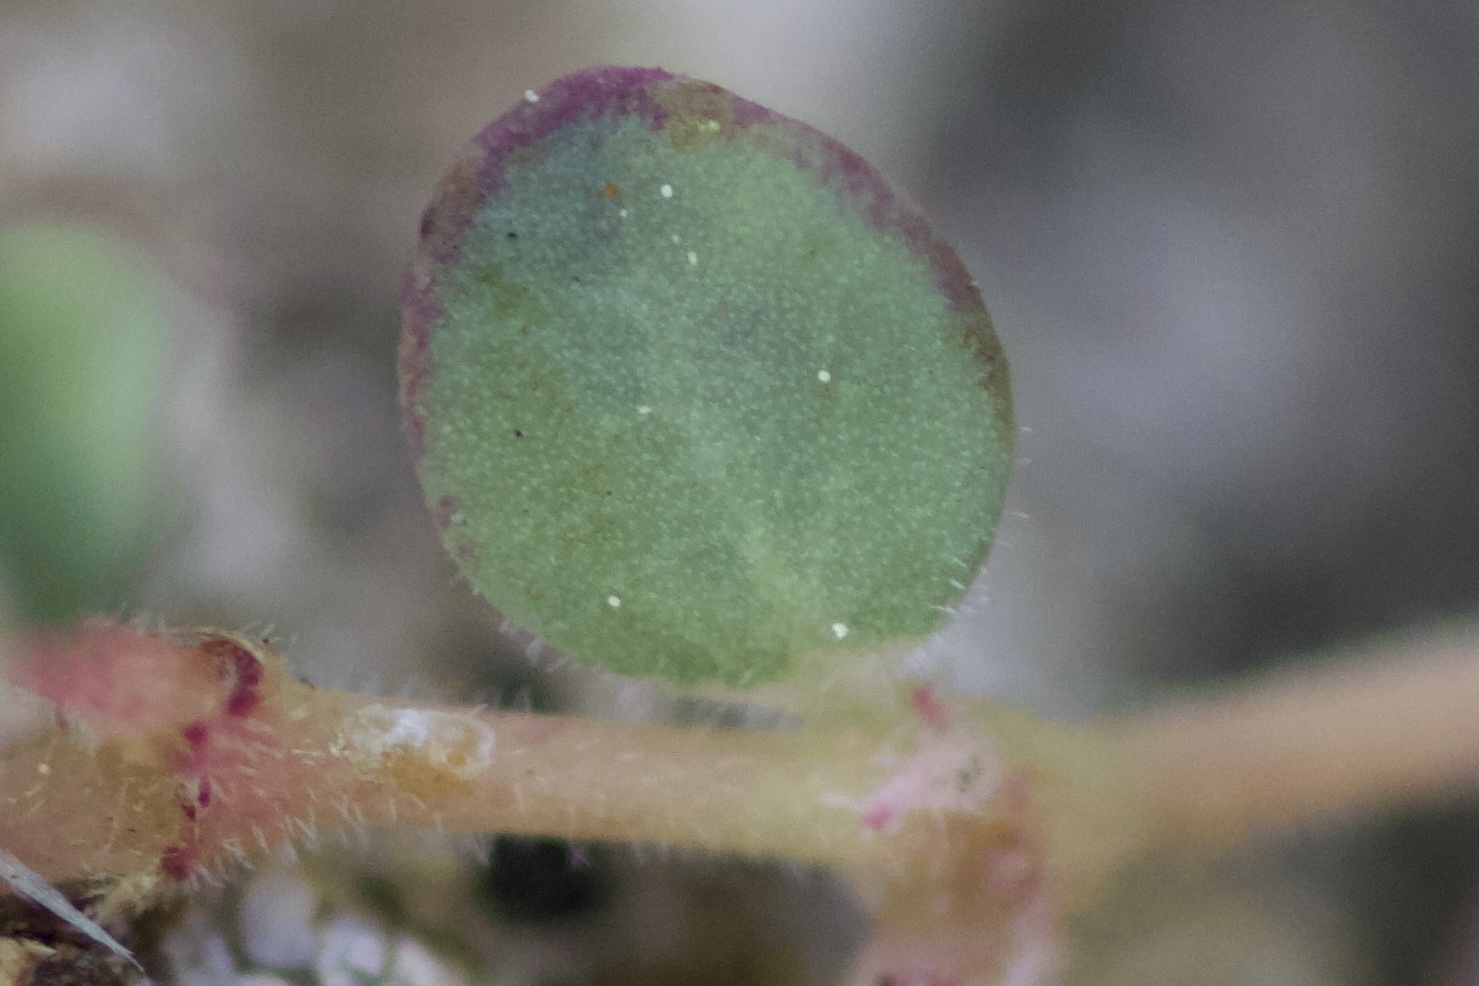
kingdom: Plantae
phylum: Tracheophyta
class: Magnoliopsida
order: Malpighiales
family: Euphorbiaceae
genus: Euphorbia
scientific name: Euphorbia polycarpa
